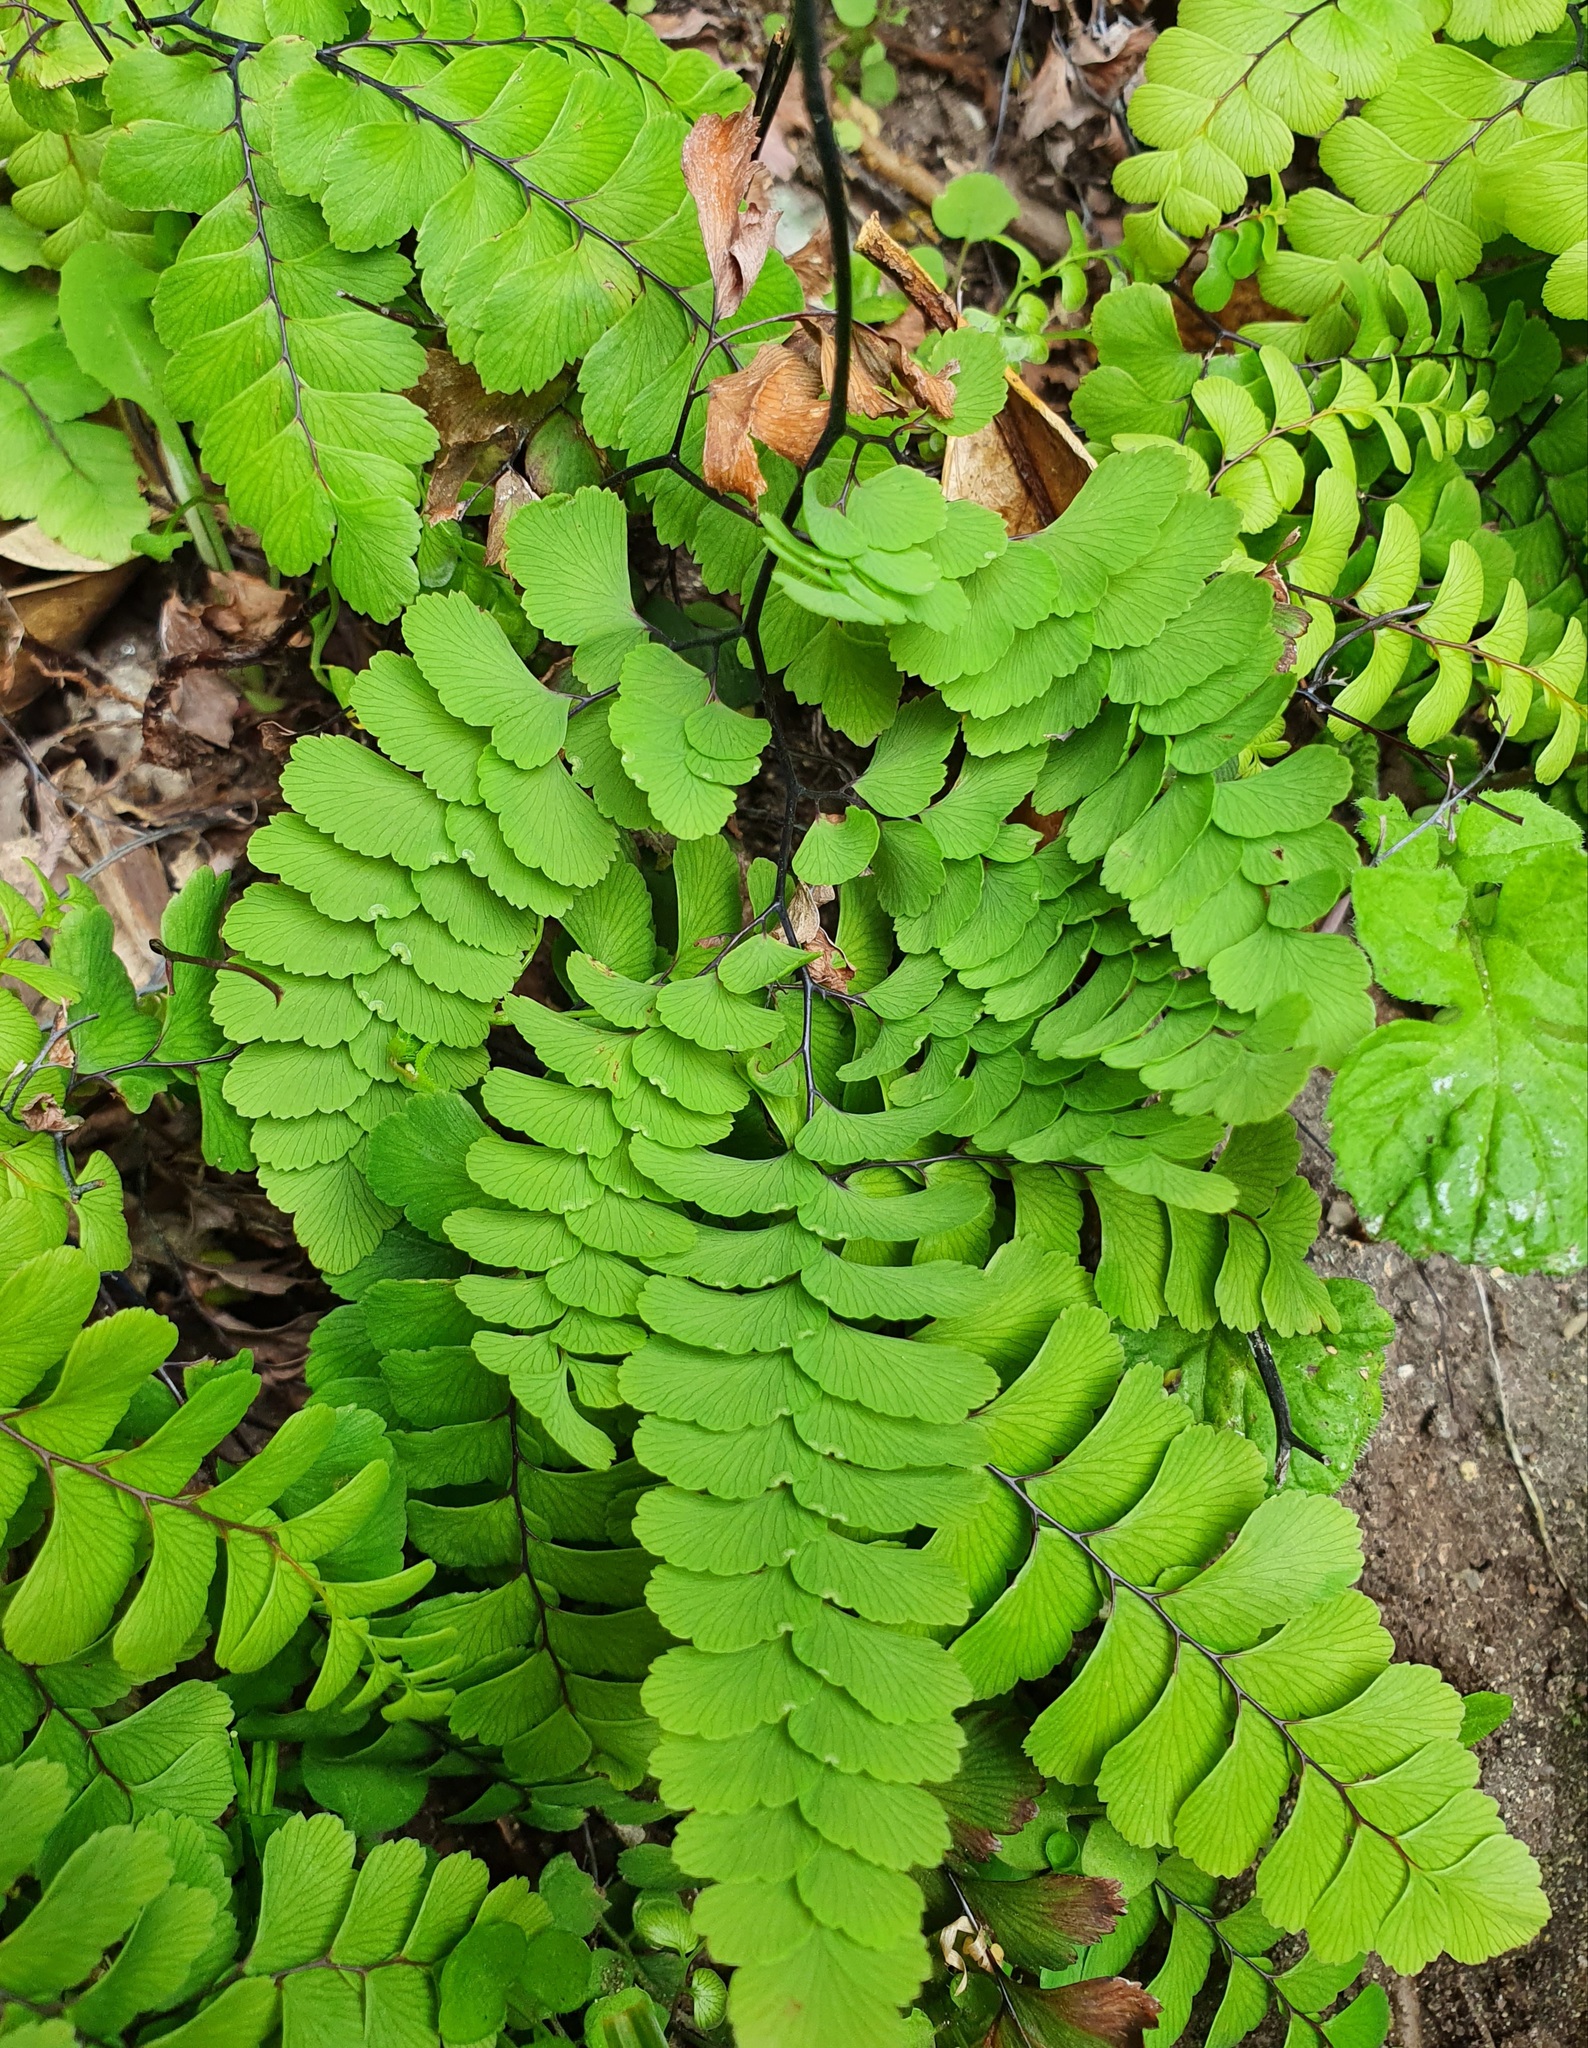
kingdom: Plantae
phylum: Tracheophyta
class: Polypodiopsida
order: Polypodiales
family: Pteridaceae
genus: Adiantum
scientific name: Adiantum cunninghamii
